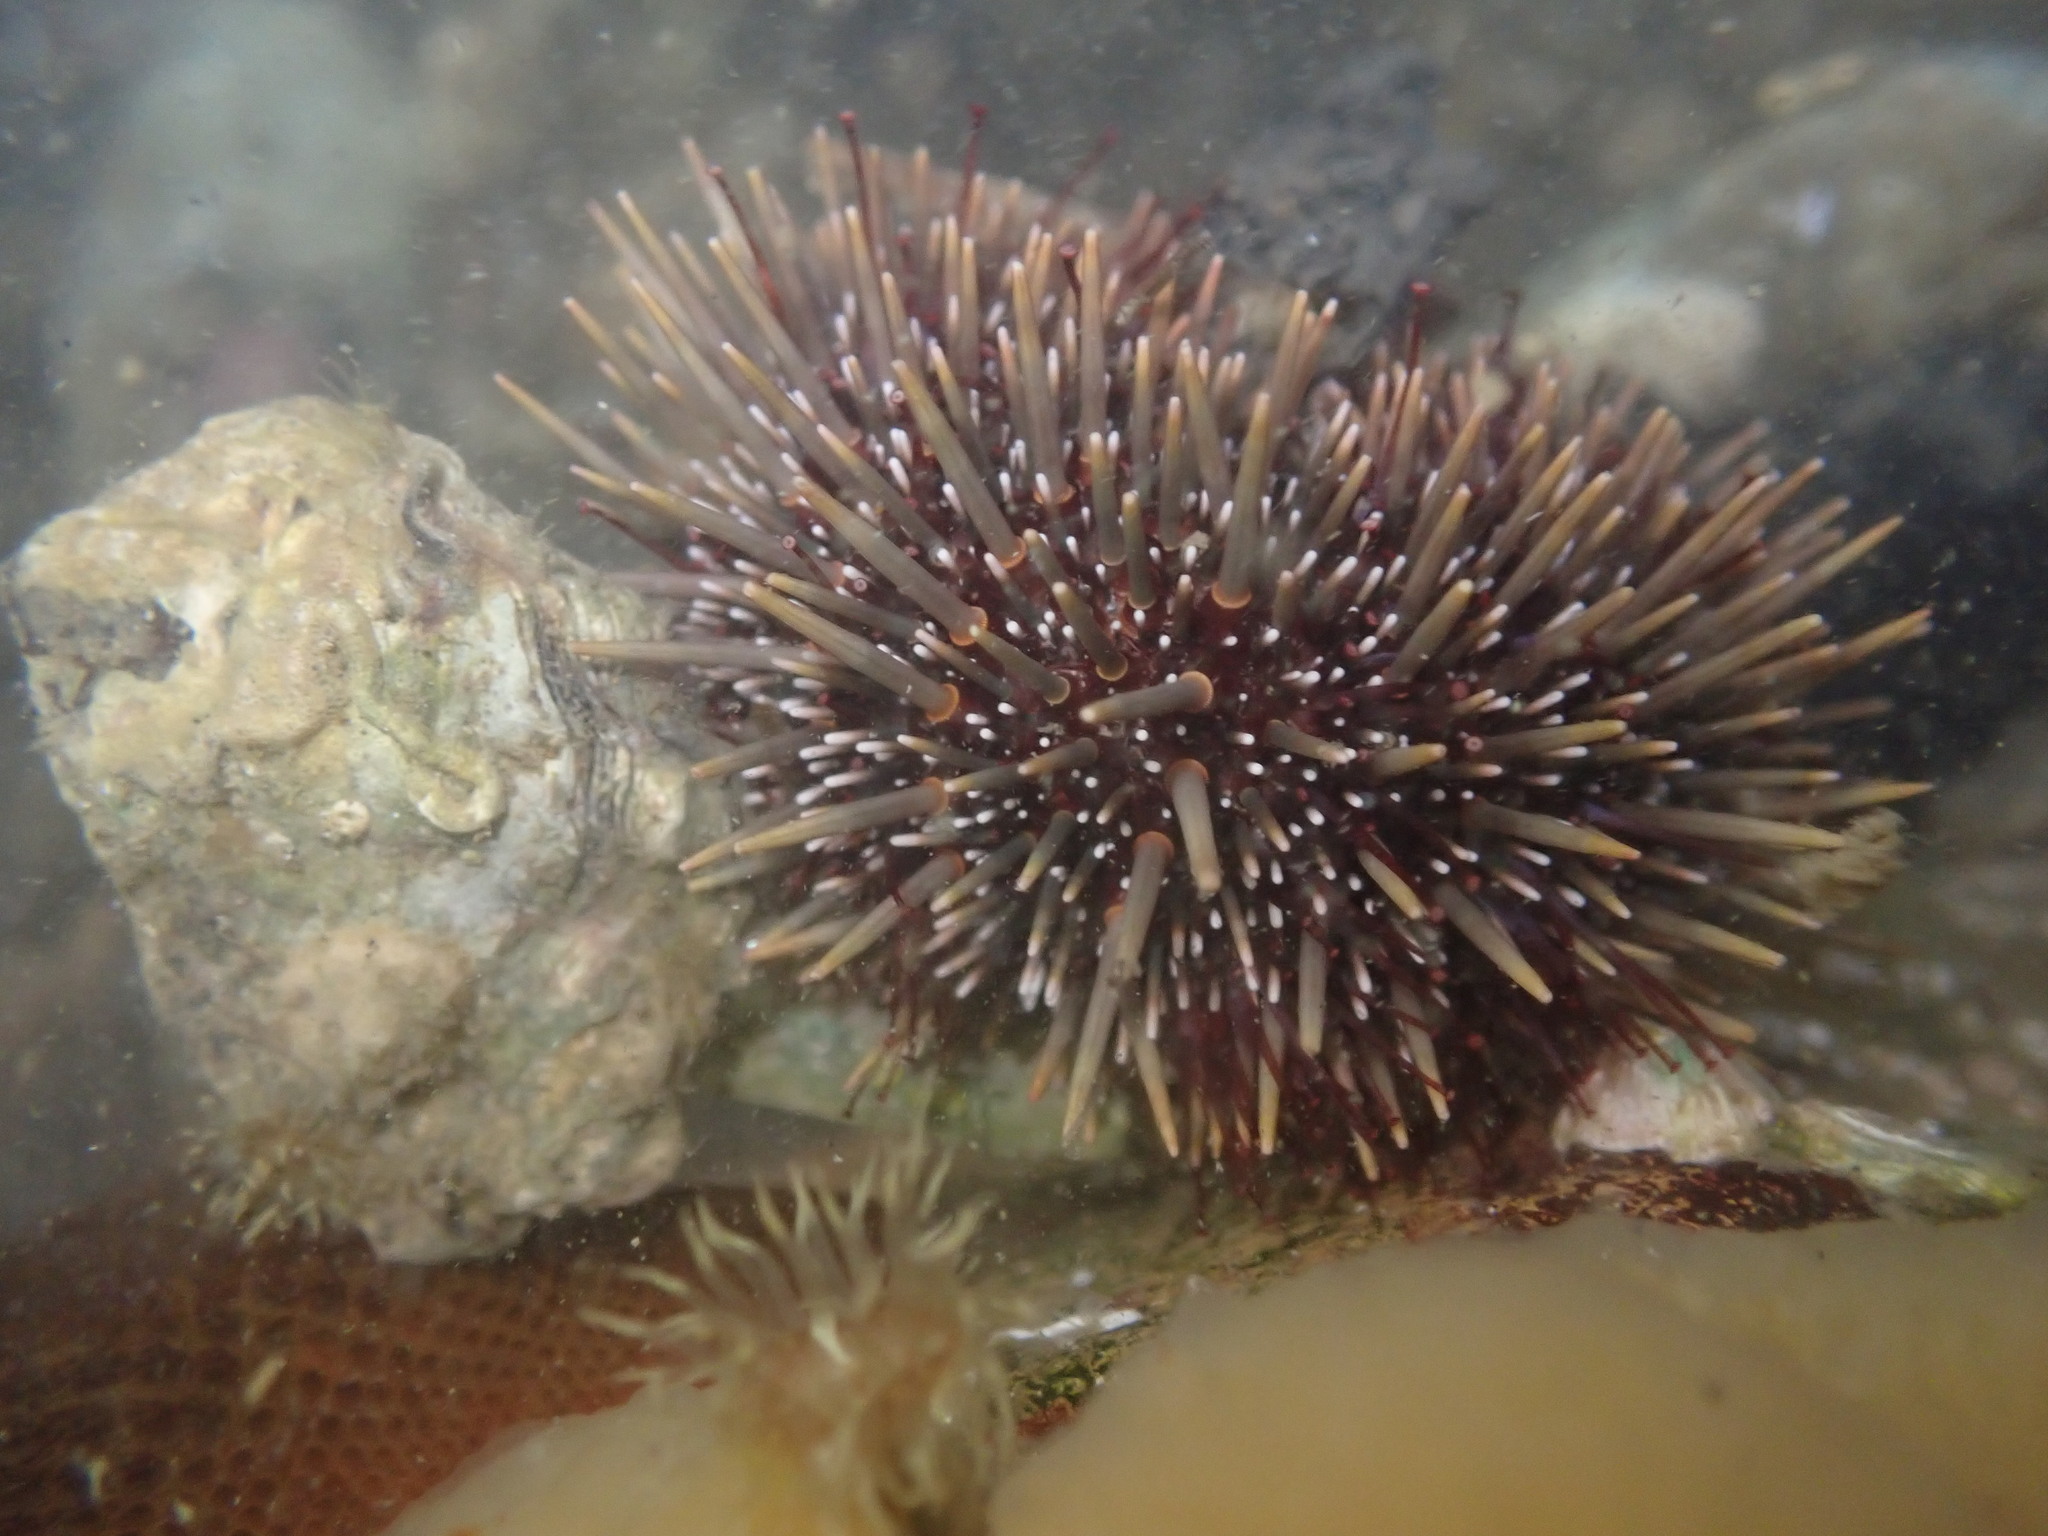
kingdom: Animalia
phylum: Echinodermata
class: Echinoidea
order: Camarodonta
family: Echinometridae
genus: Evechinus
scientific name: Evechinus chloroticus
